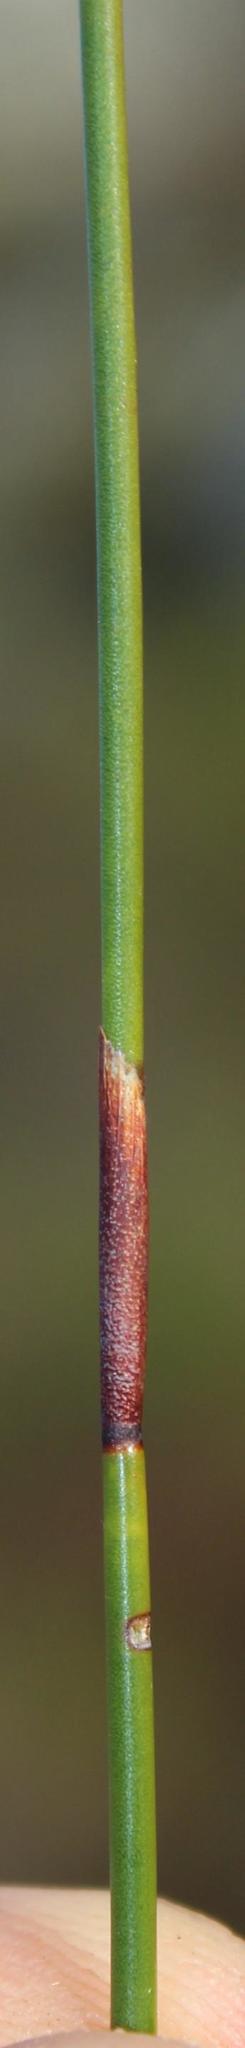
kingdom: Plantae
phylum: Tracheophyta
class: Liliopsida
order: Poales
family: Restionaceae
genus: Staberoha
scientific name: Staberoha cernua
